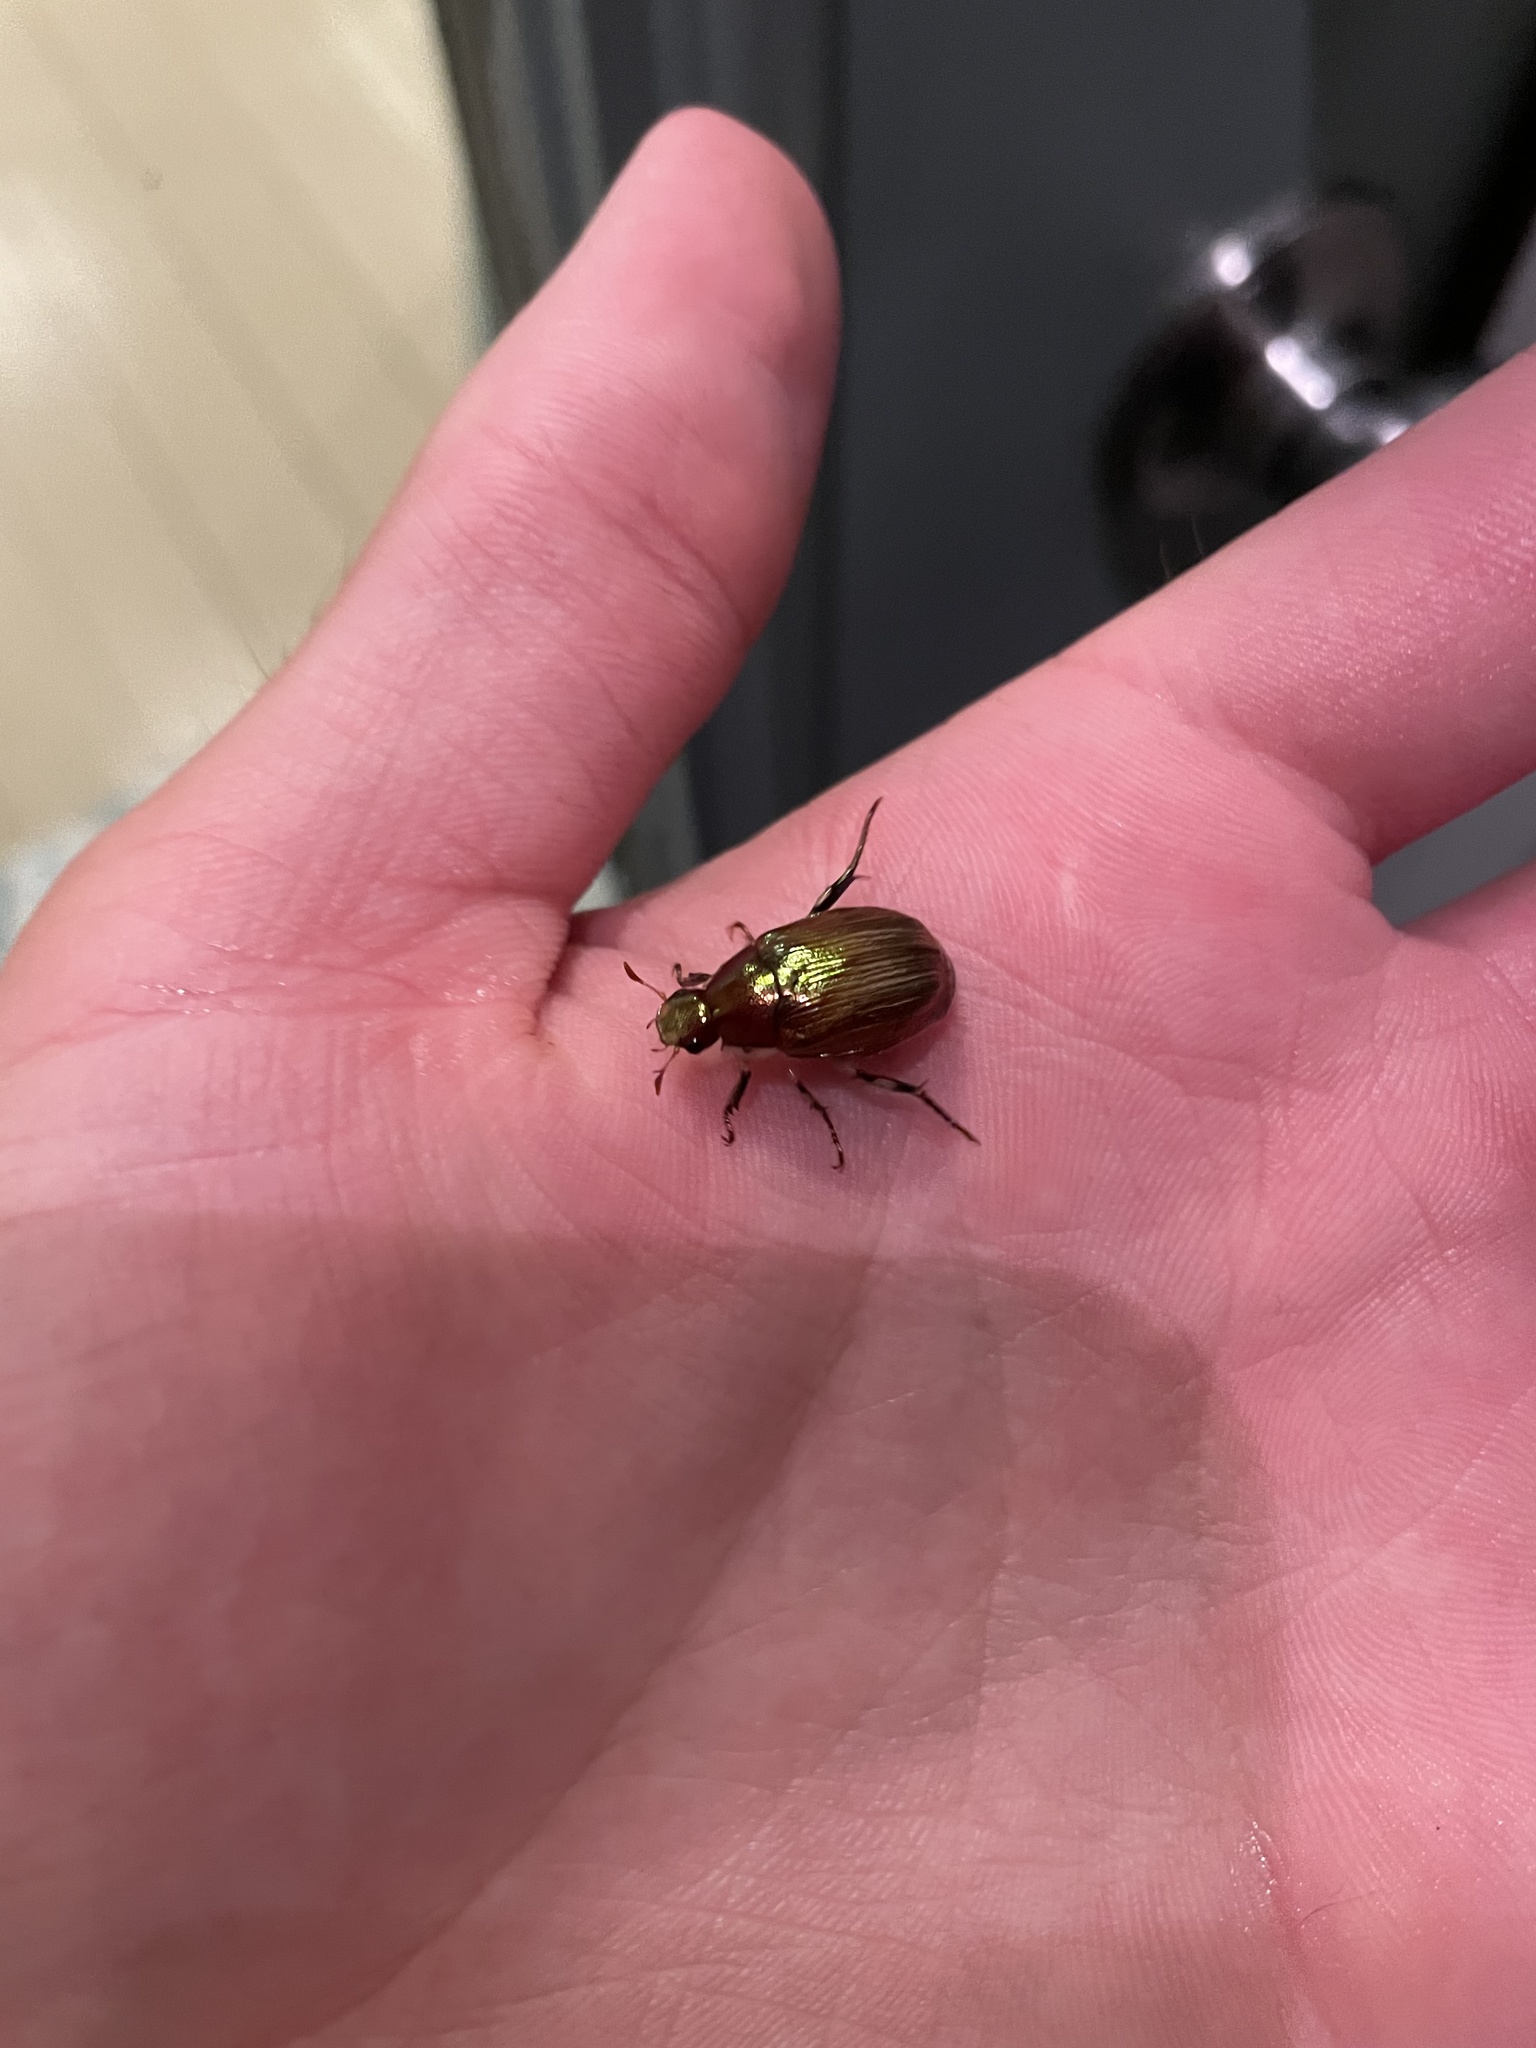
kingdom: Animalia
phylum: Arthropoda
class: Insecta
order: Coleoptera
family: Scarabaeidae
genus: Callistethus
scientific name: Callistethus marginatus
